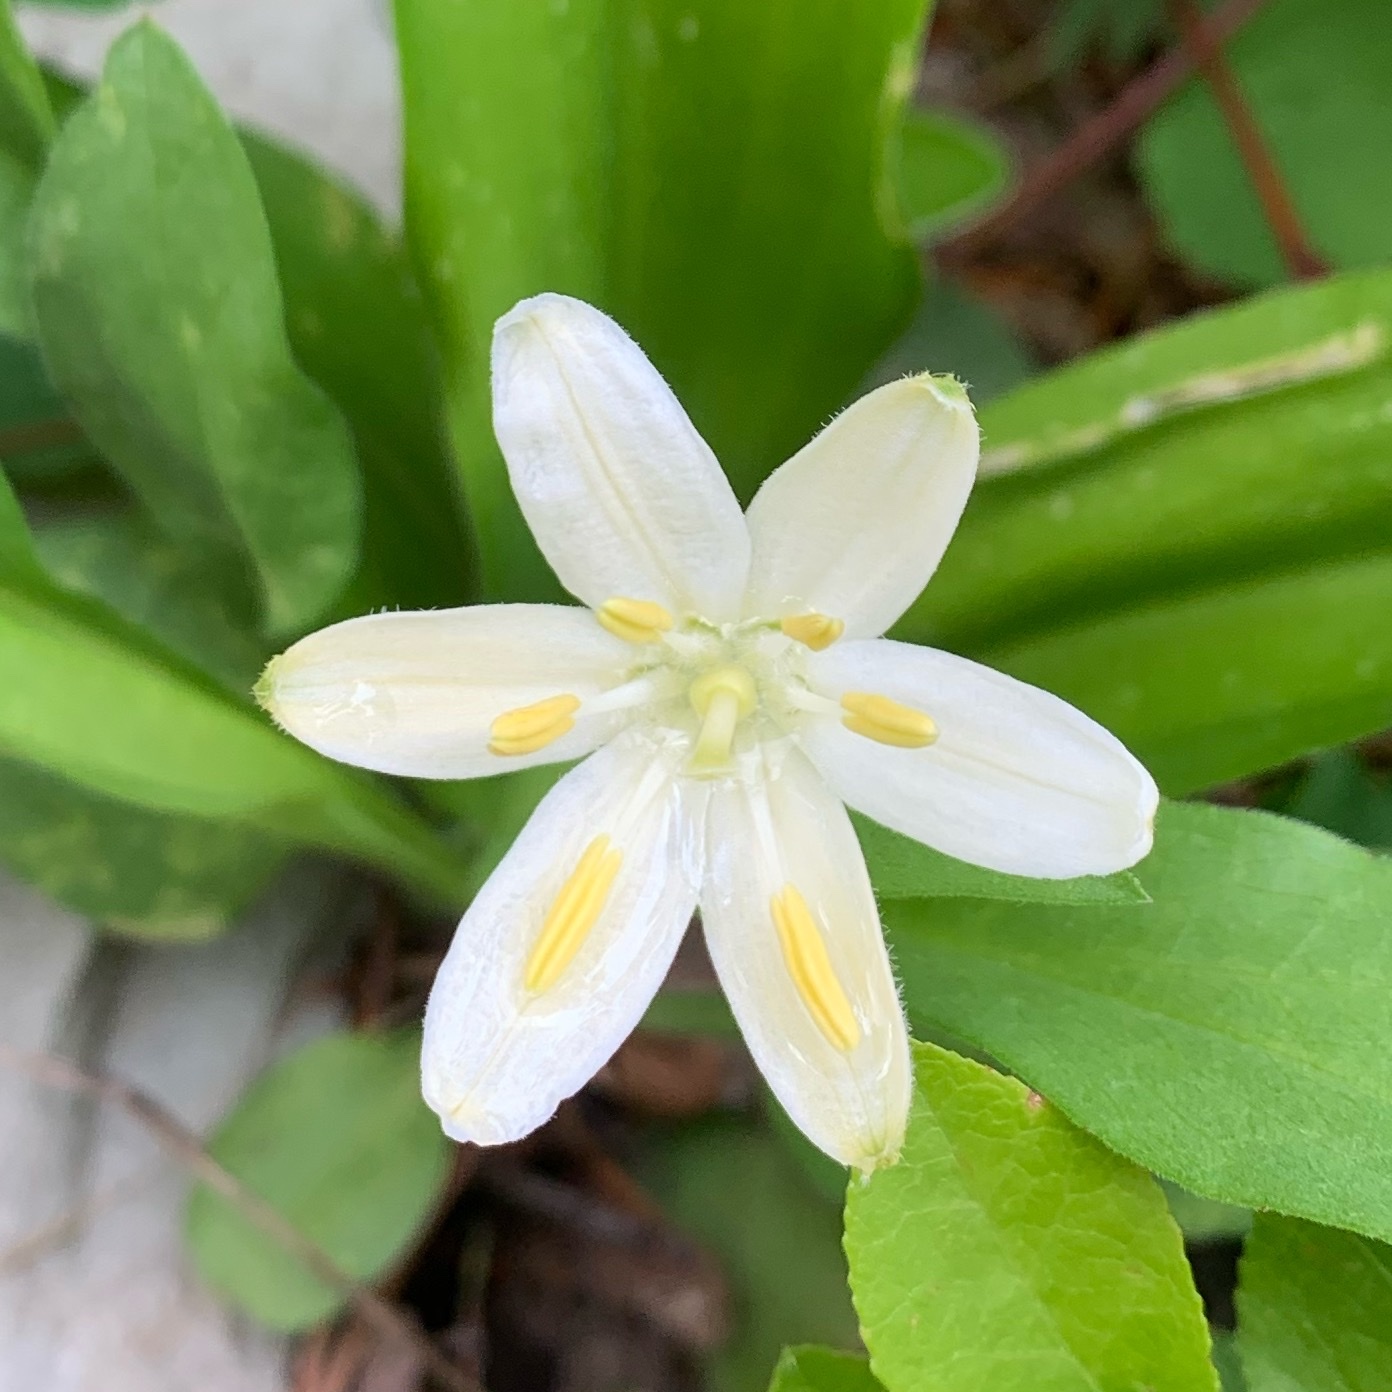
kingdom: Plantae
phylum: Tracheophyta
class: Liliopsida
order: Liliales
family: Liliaceae
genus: Clintonia
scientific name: Clintonia uniflora
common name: Queen's cup
